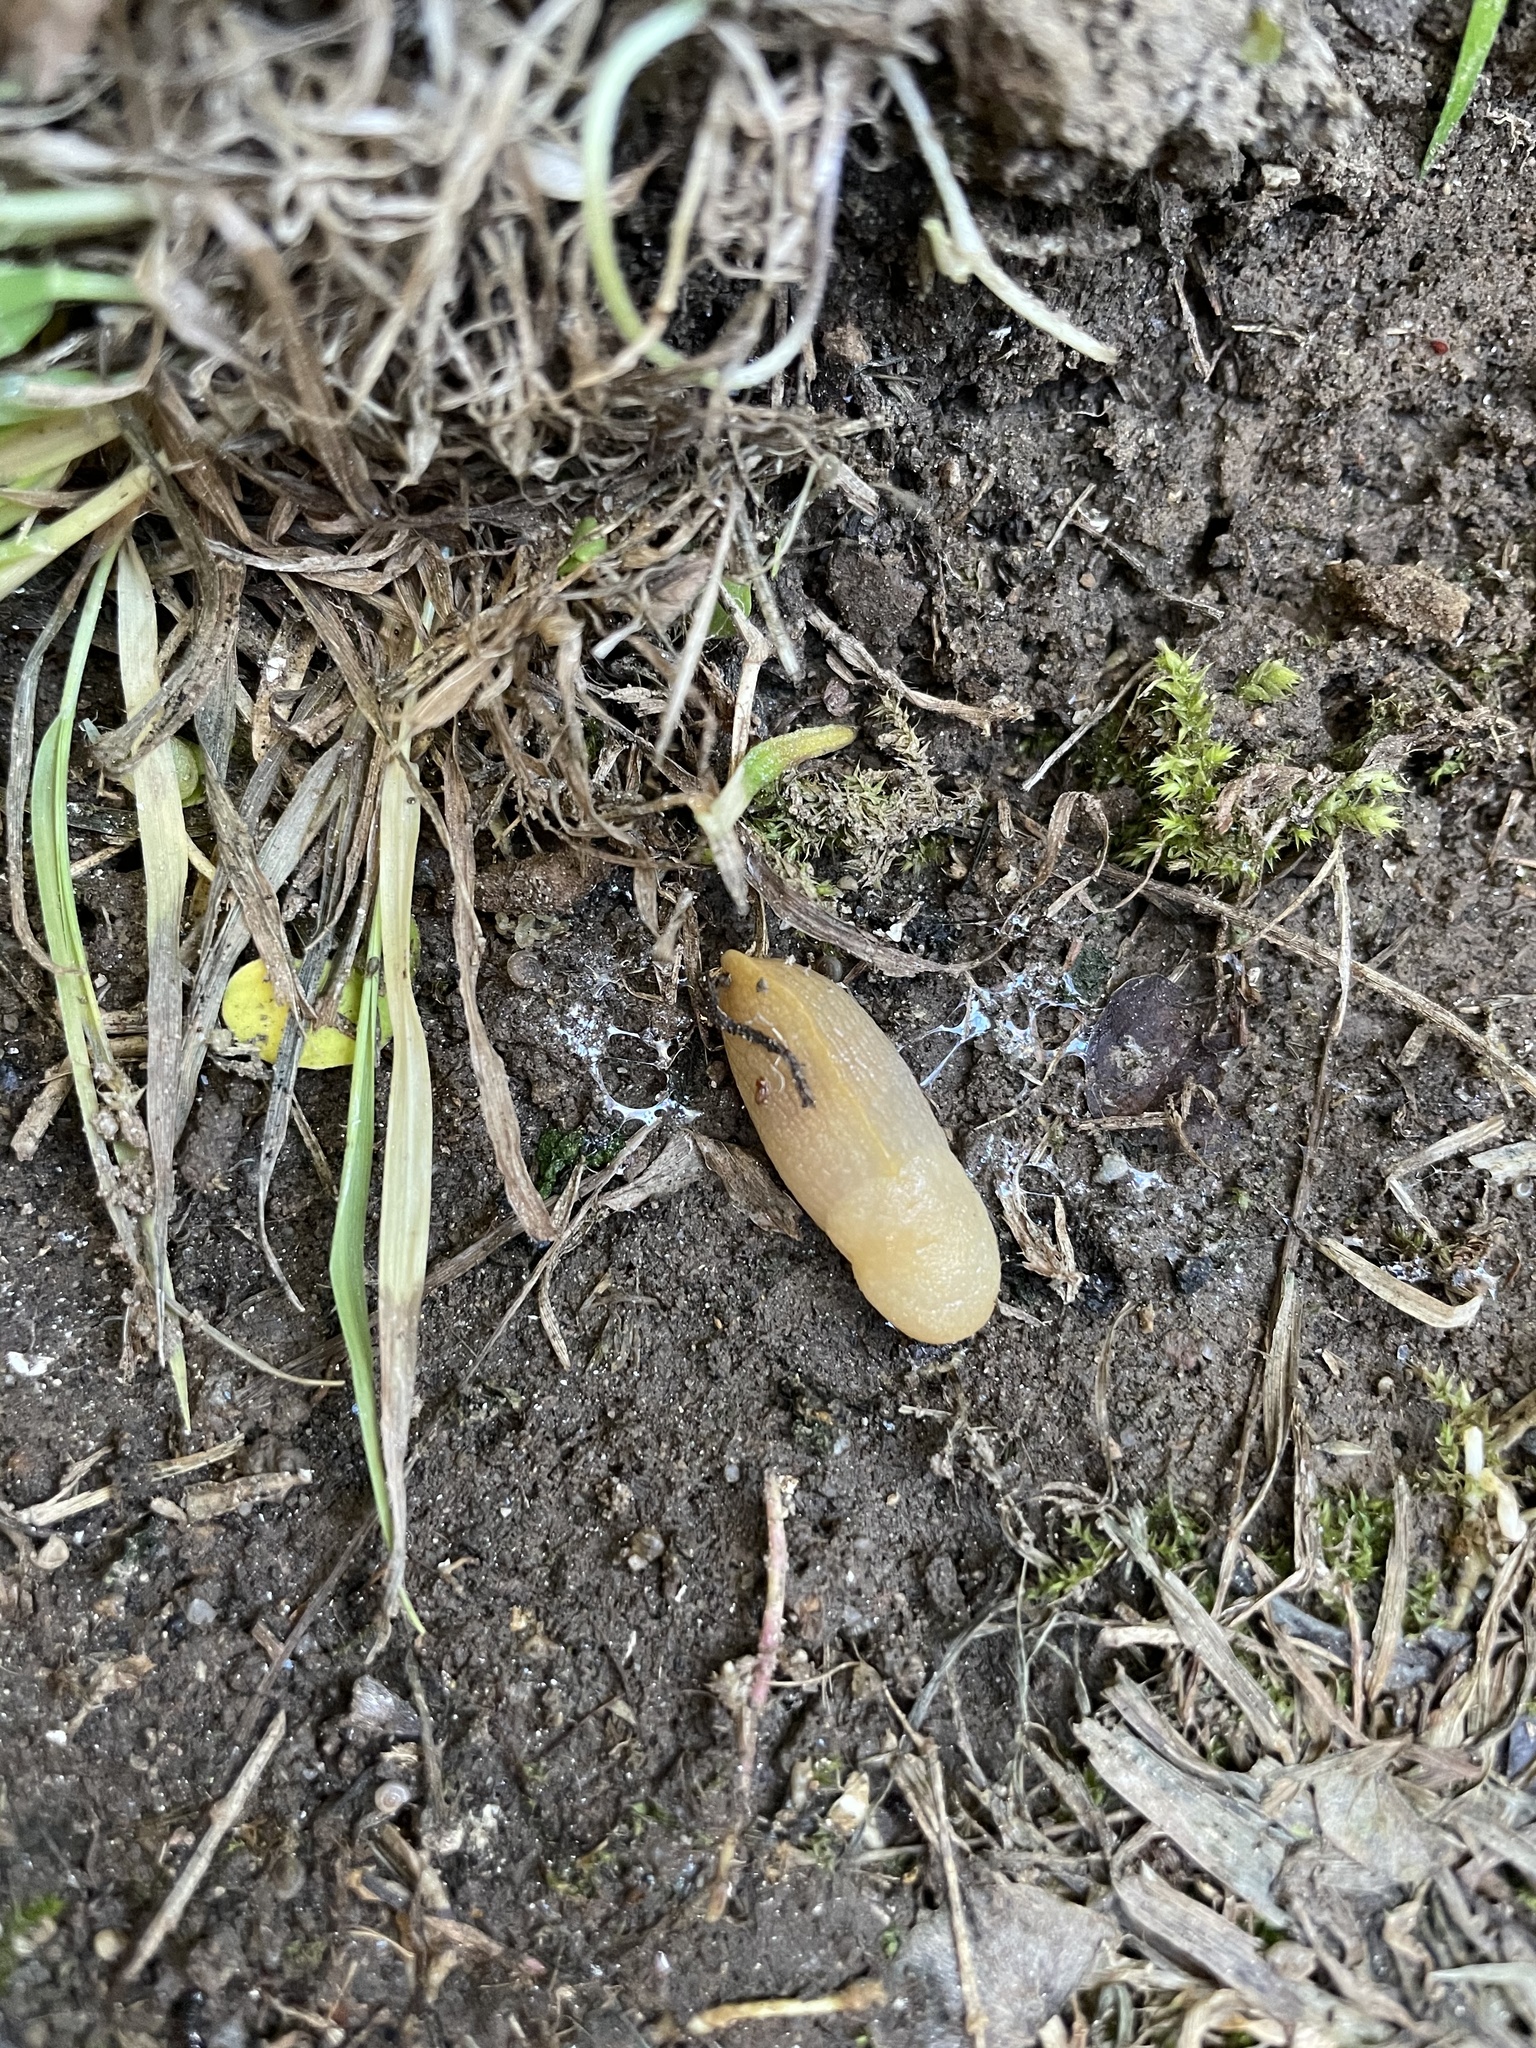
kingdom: Animalia
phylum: Mollusca
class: Gastropoda
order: Stylommatophora
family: Milacidae
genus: Milax
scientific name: Milax gagates
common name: Greenhouse slug
